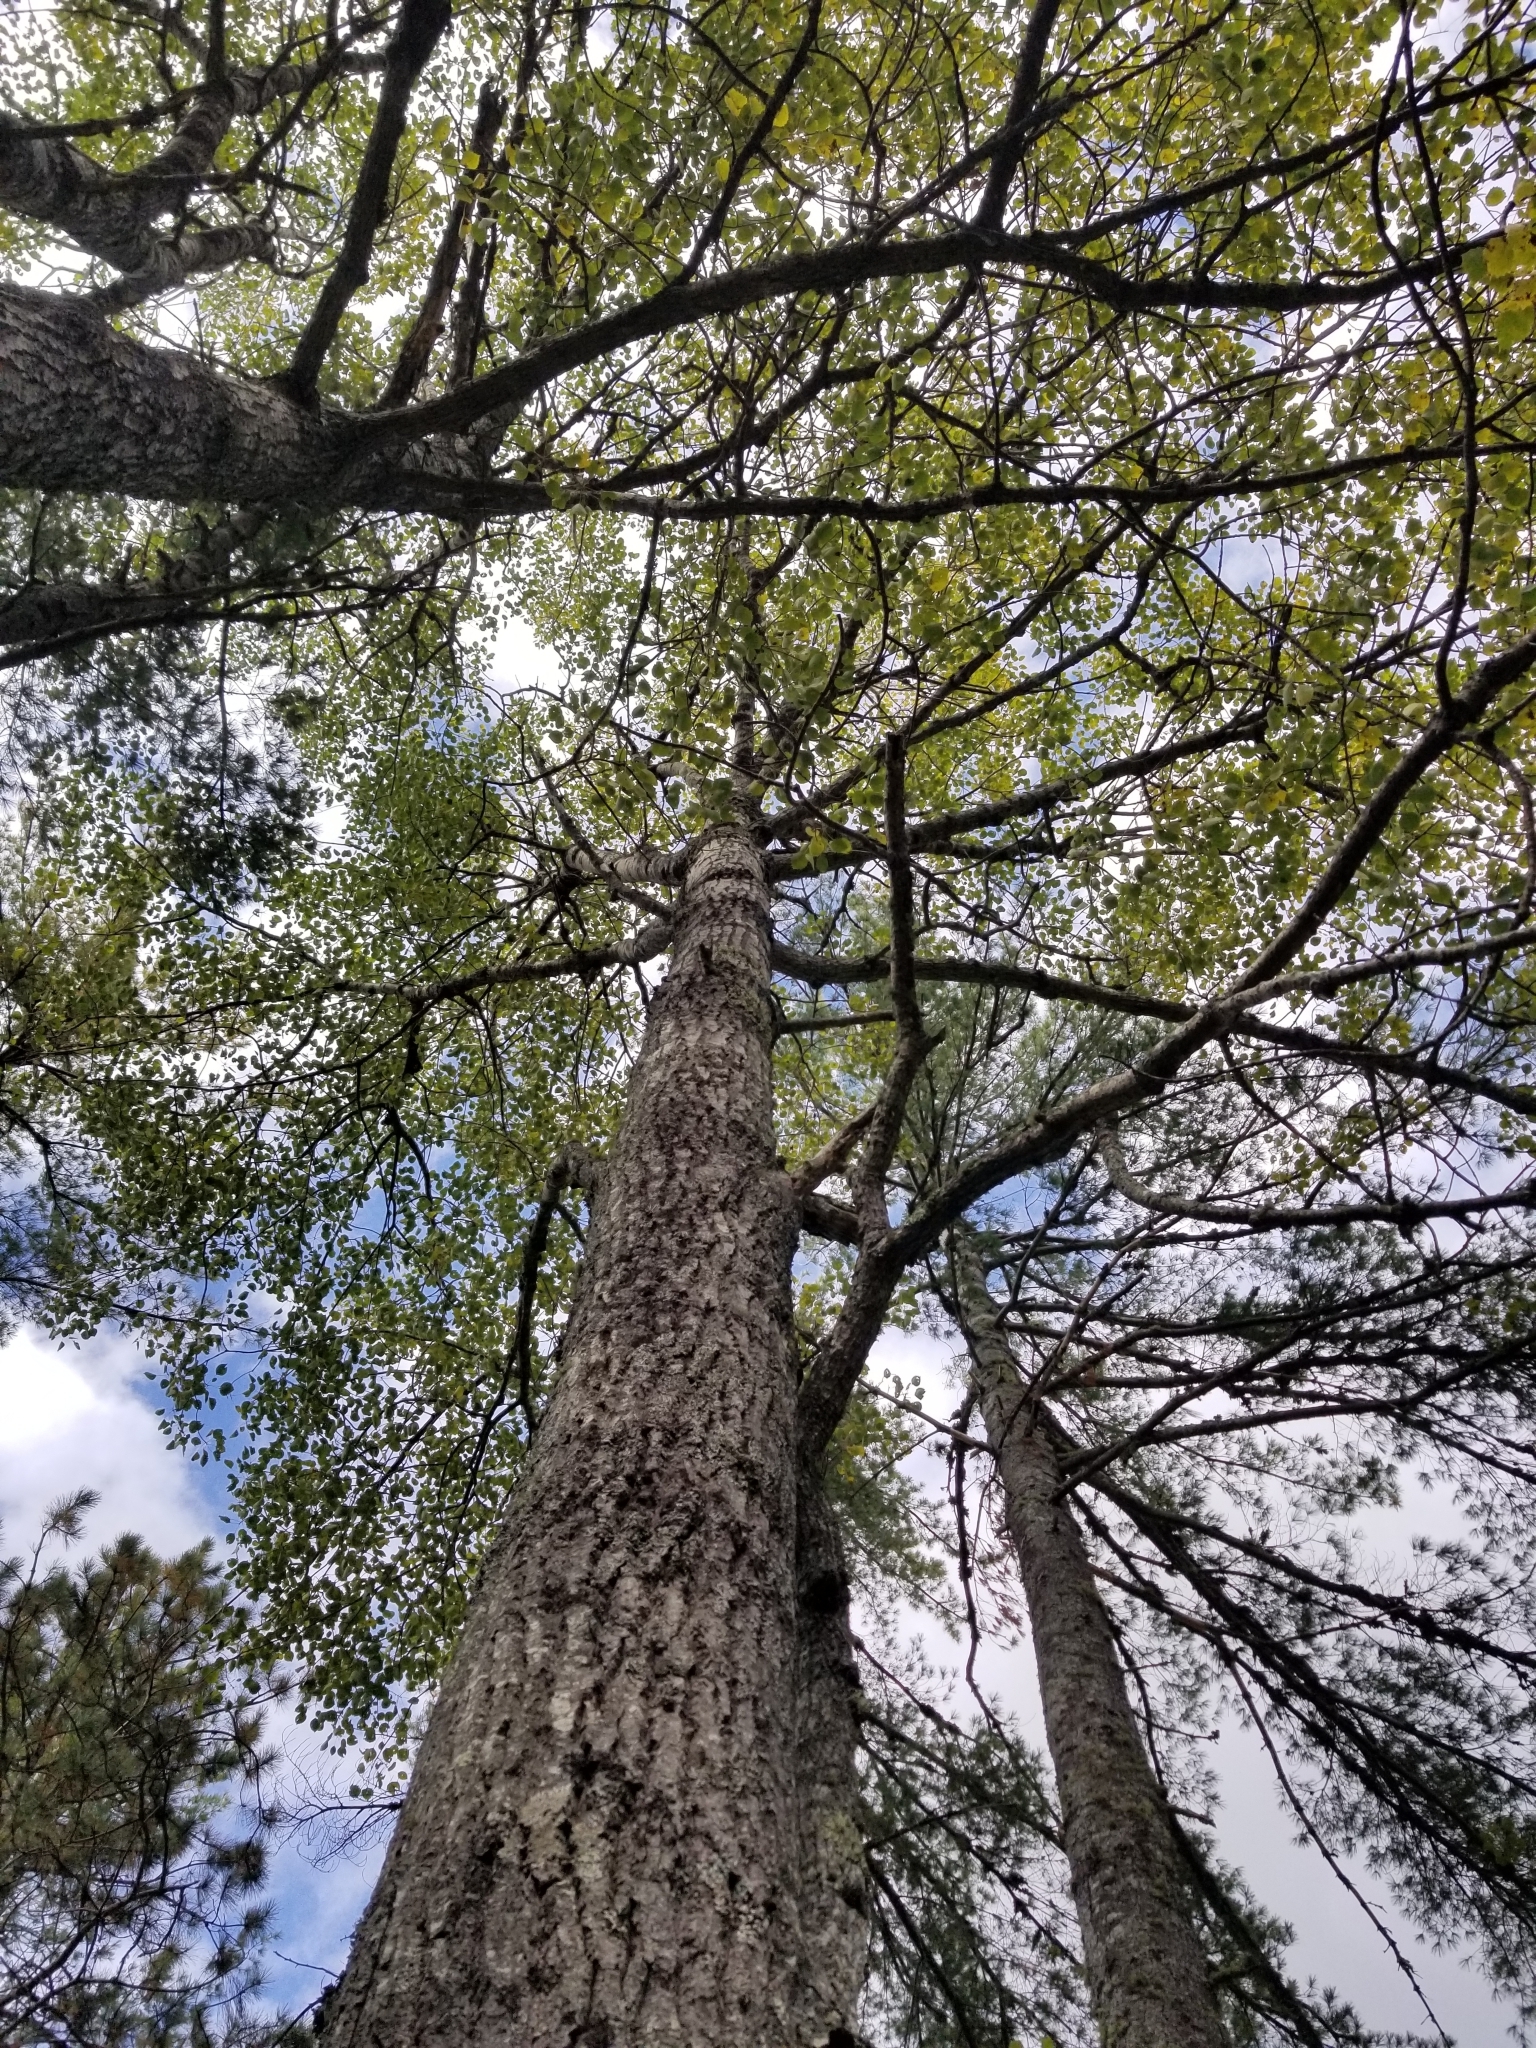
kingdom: Plantae
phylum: Tracheophyta
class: Magnoliopsida
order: Malpighiales
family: Salicaceae
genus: Populus
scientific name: Populus grandidentata
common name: Bigtooth aspen
